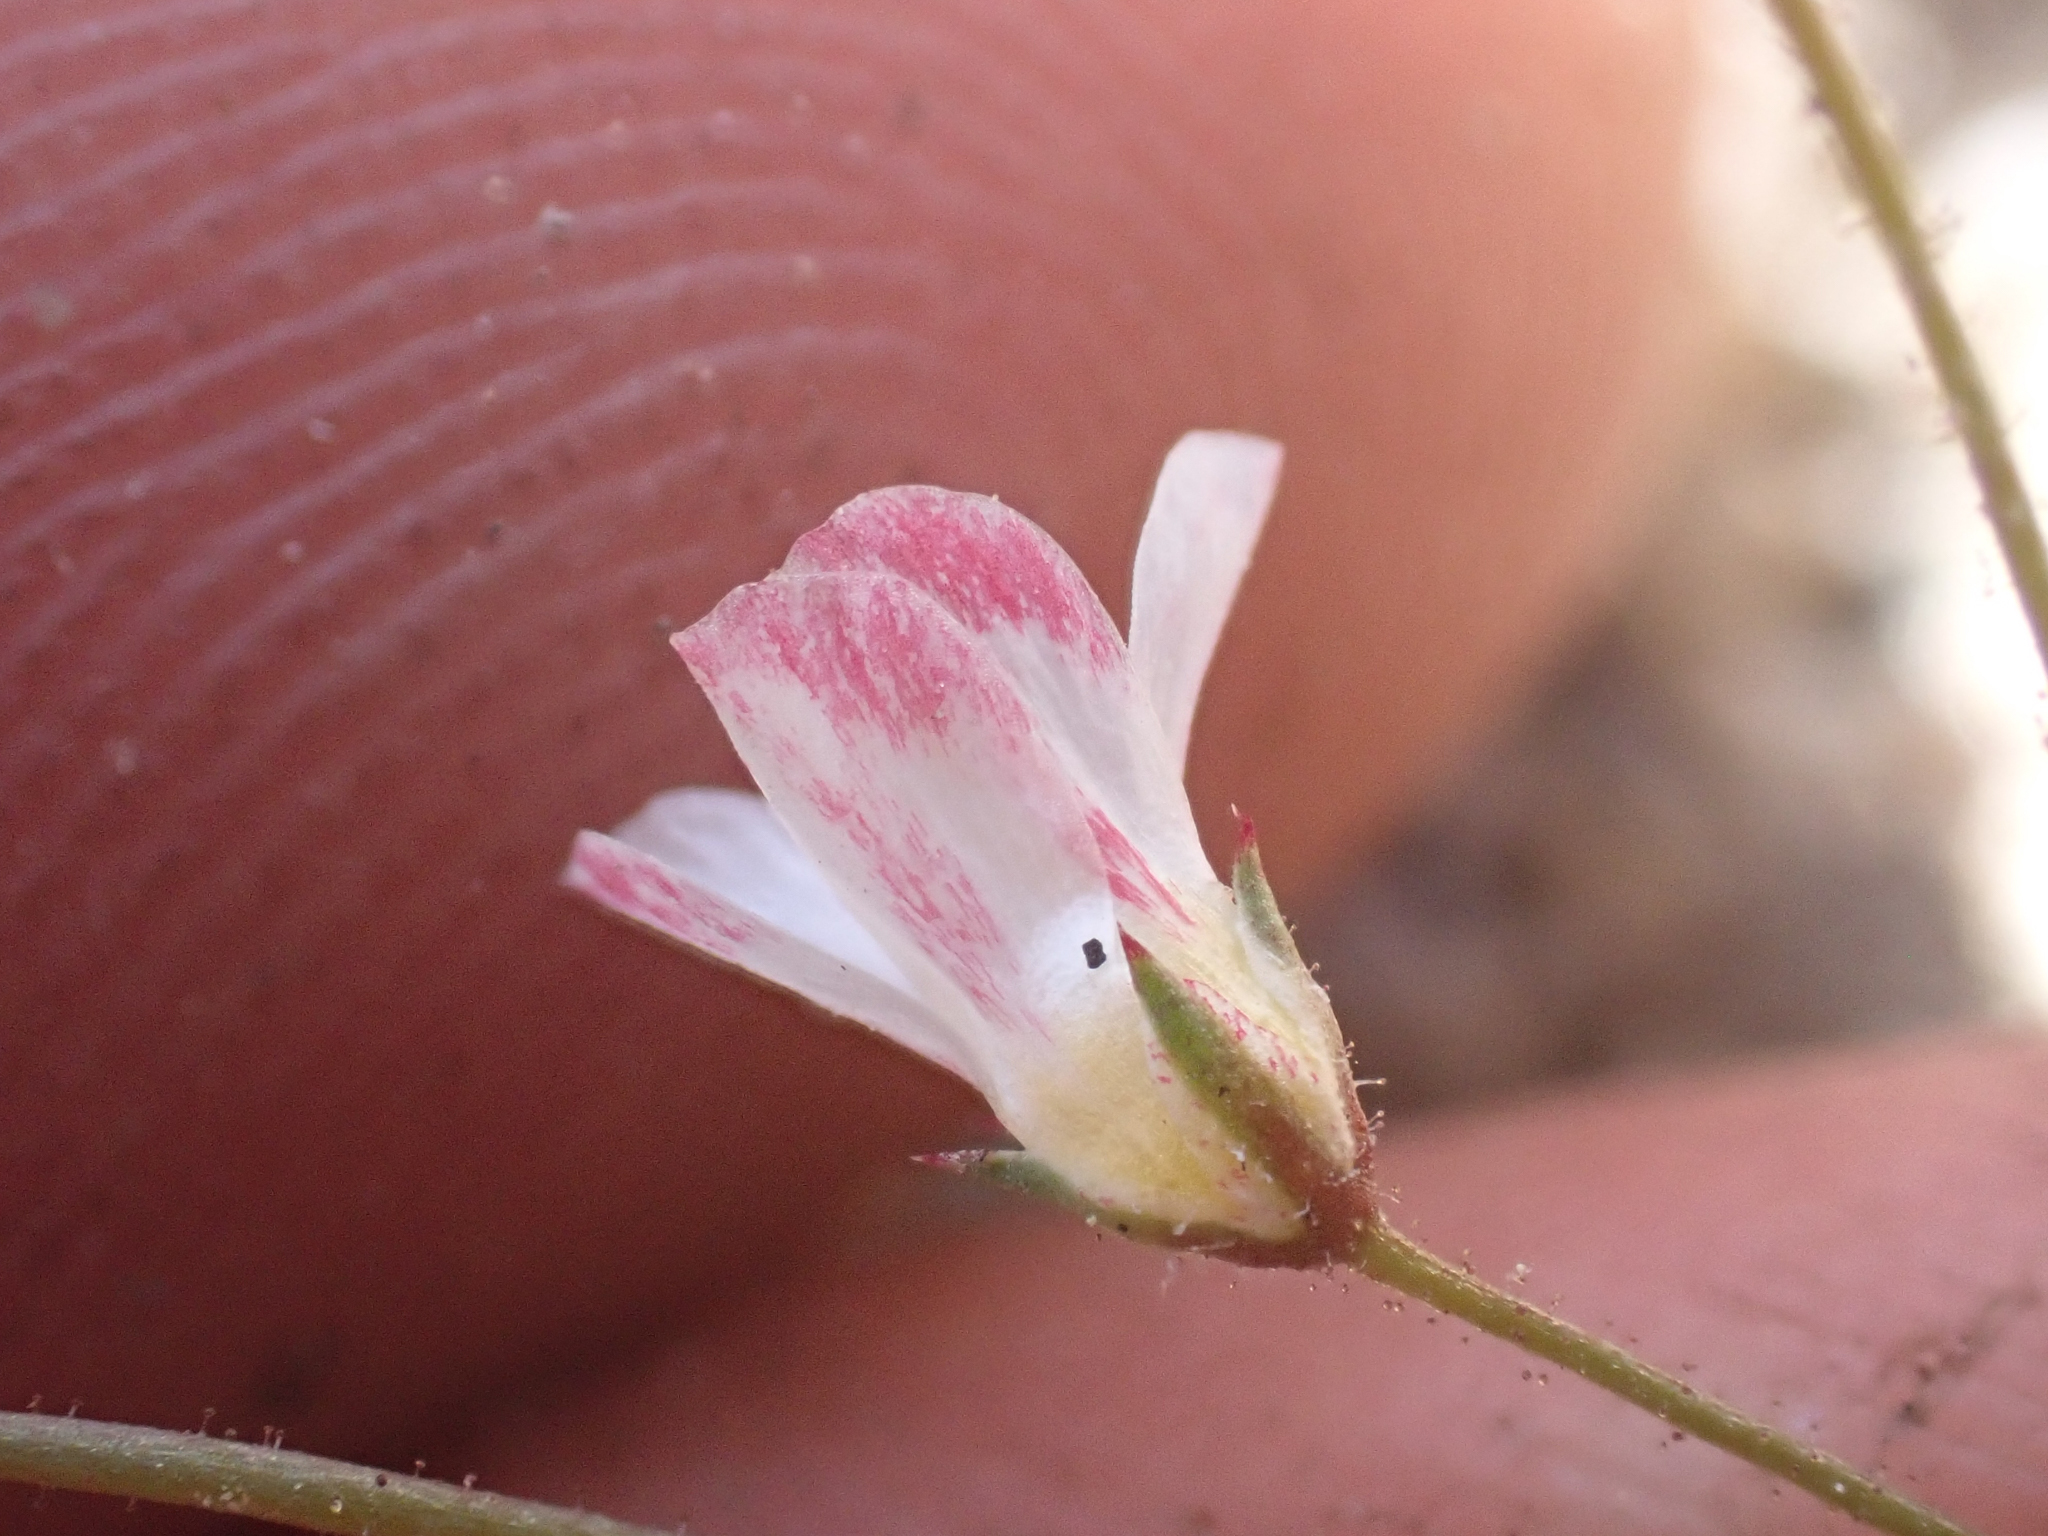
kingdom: Plantae
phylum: Tracheophyta
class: Magnoliopsida
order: Ericales
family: Polemoniaceae
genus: Linanthus
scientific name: Linanthus inyoensis
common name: Inyo gilia
